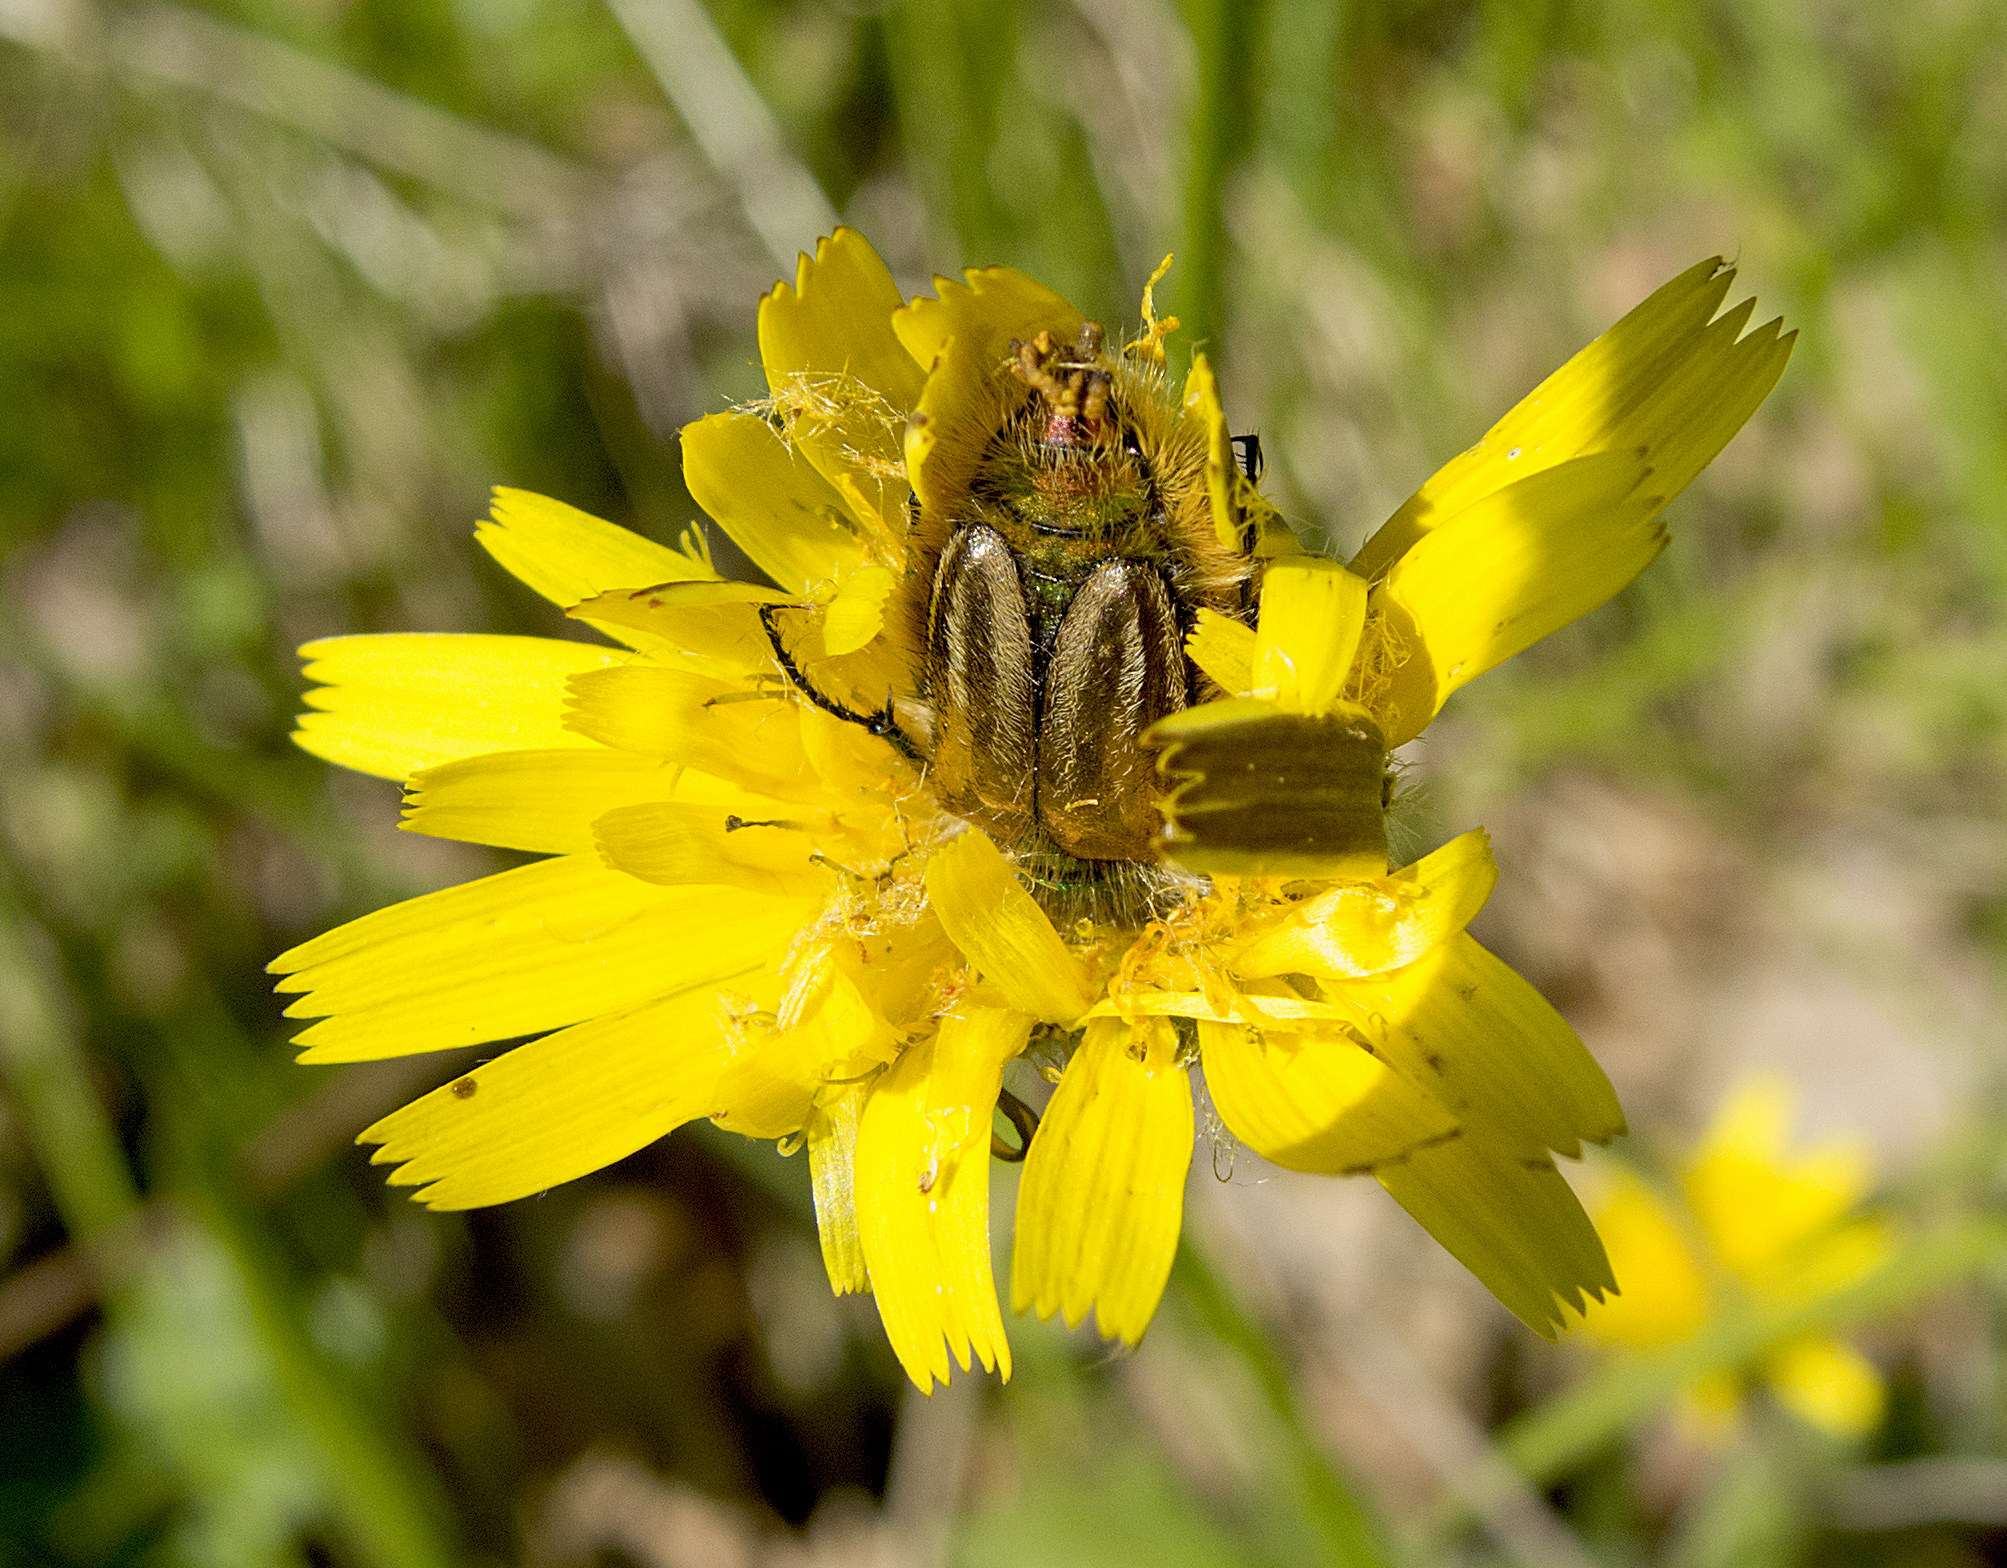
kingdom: Animalia
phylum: Arthropoda
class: Insecta
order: Coleoptera
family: Glaphyridae
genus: Eulasia
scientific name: Eulasia pareyssei
